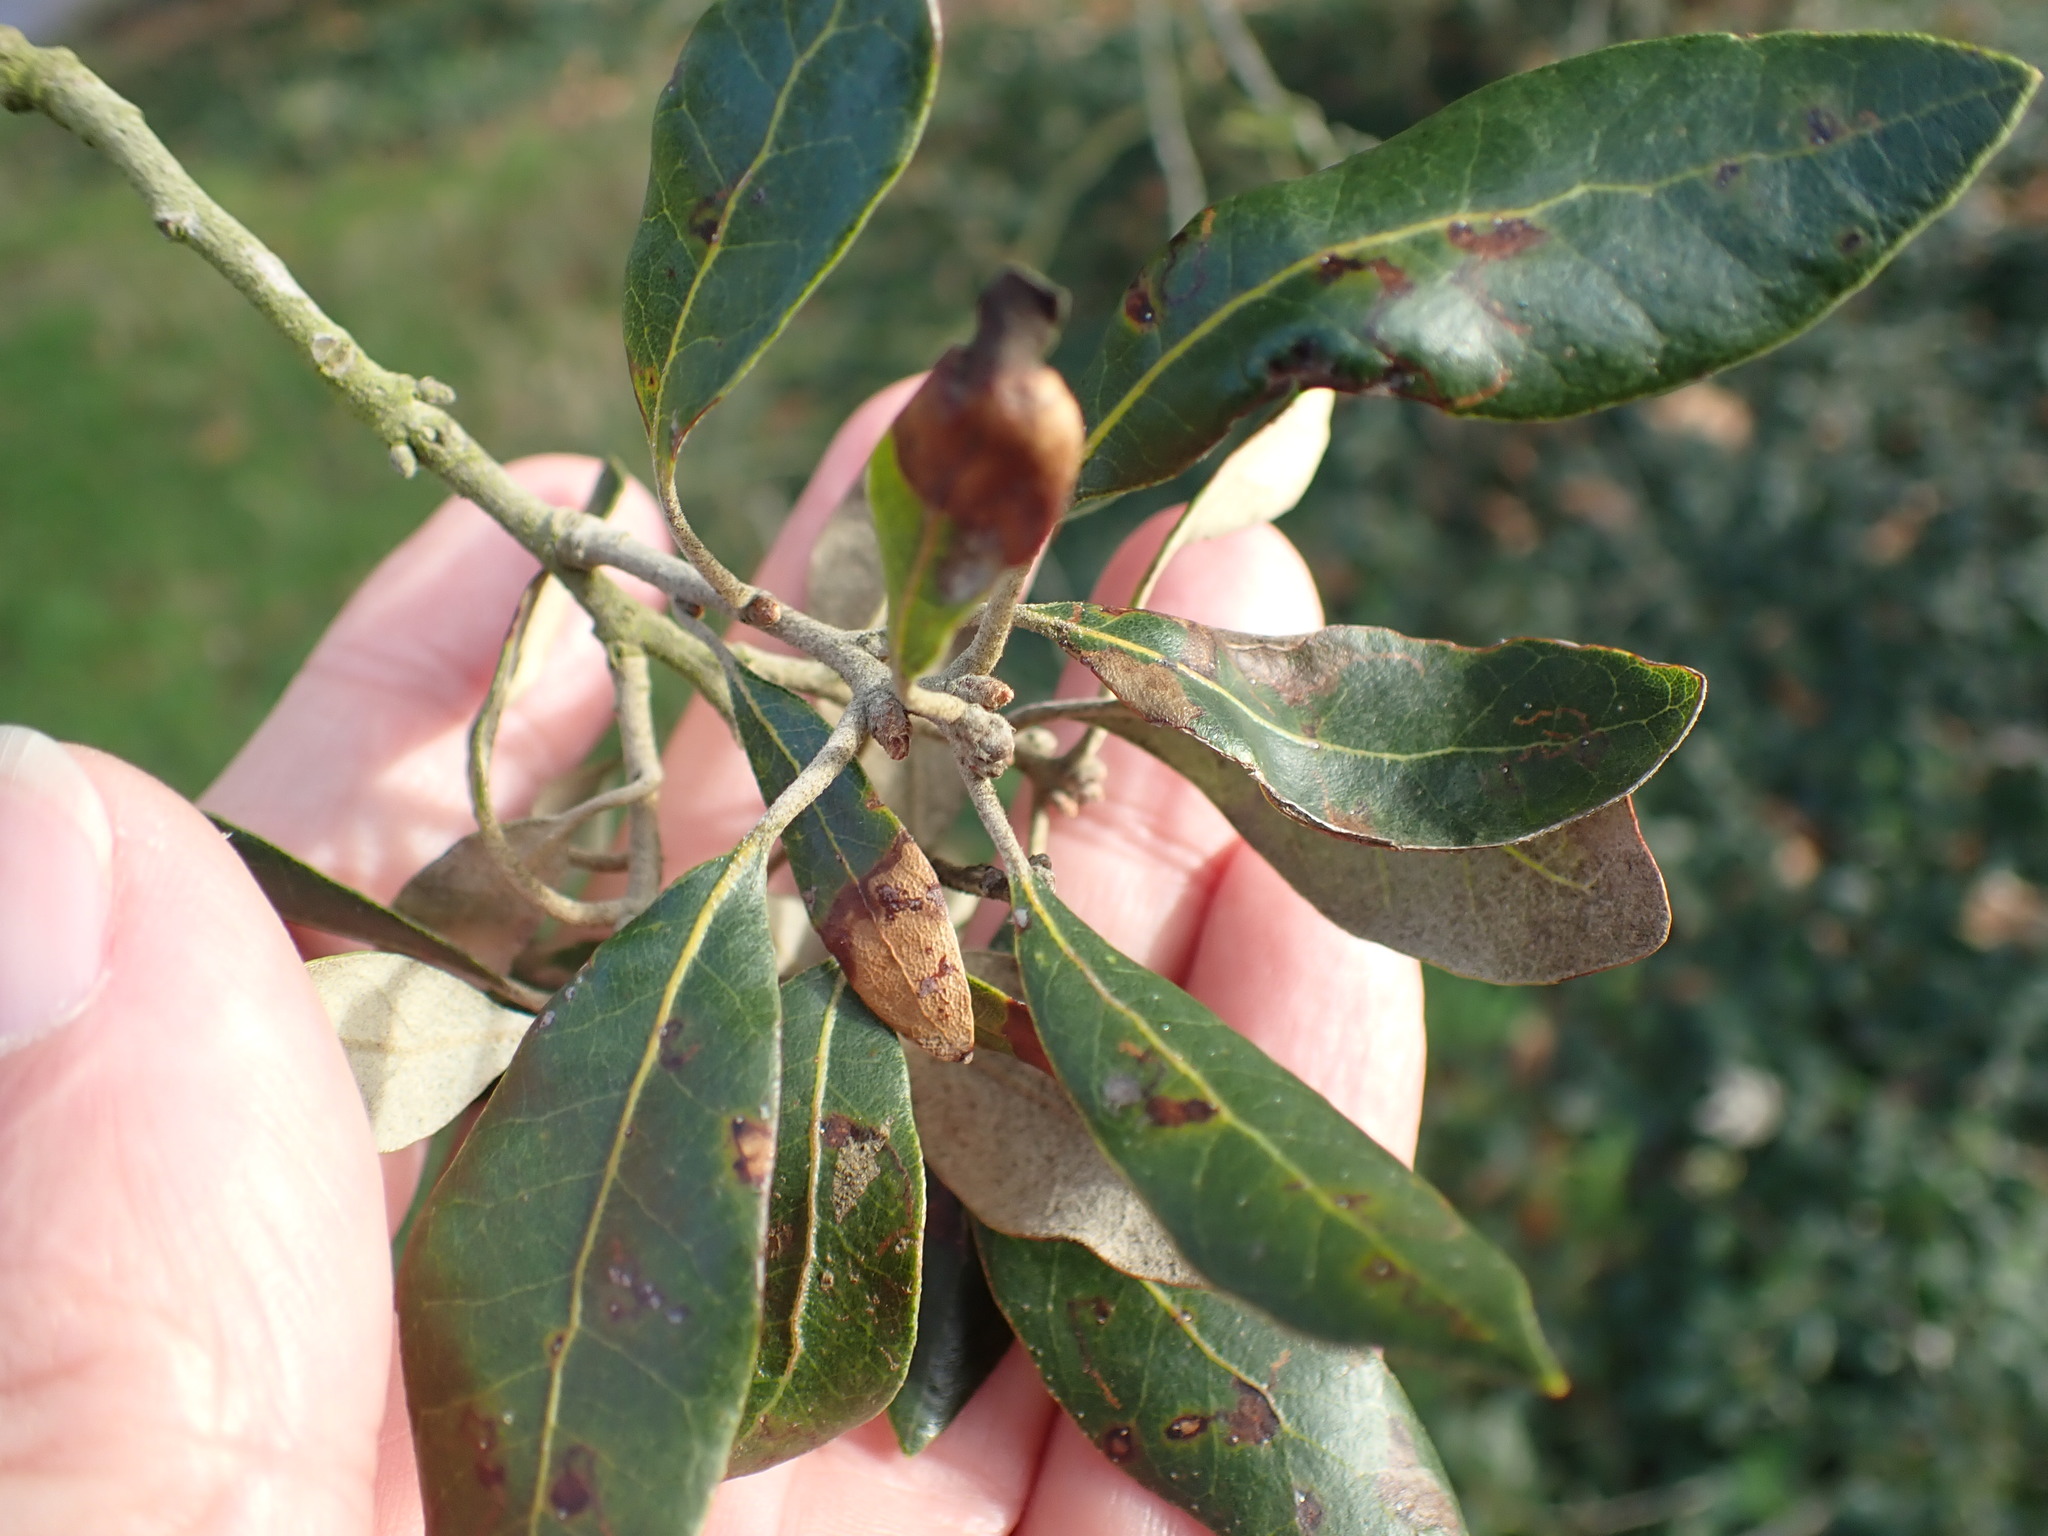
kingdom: Plantae
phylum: Tracheophyta
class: Magnoliopsida
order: Fagales
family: Fagaceae
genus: Quercus
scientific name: Quercus ilex
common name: Evergreen oak
